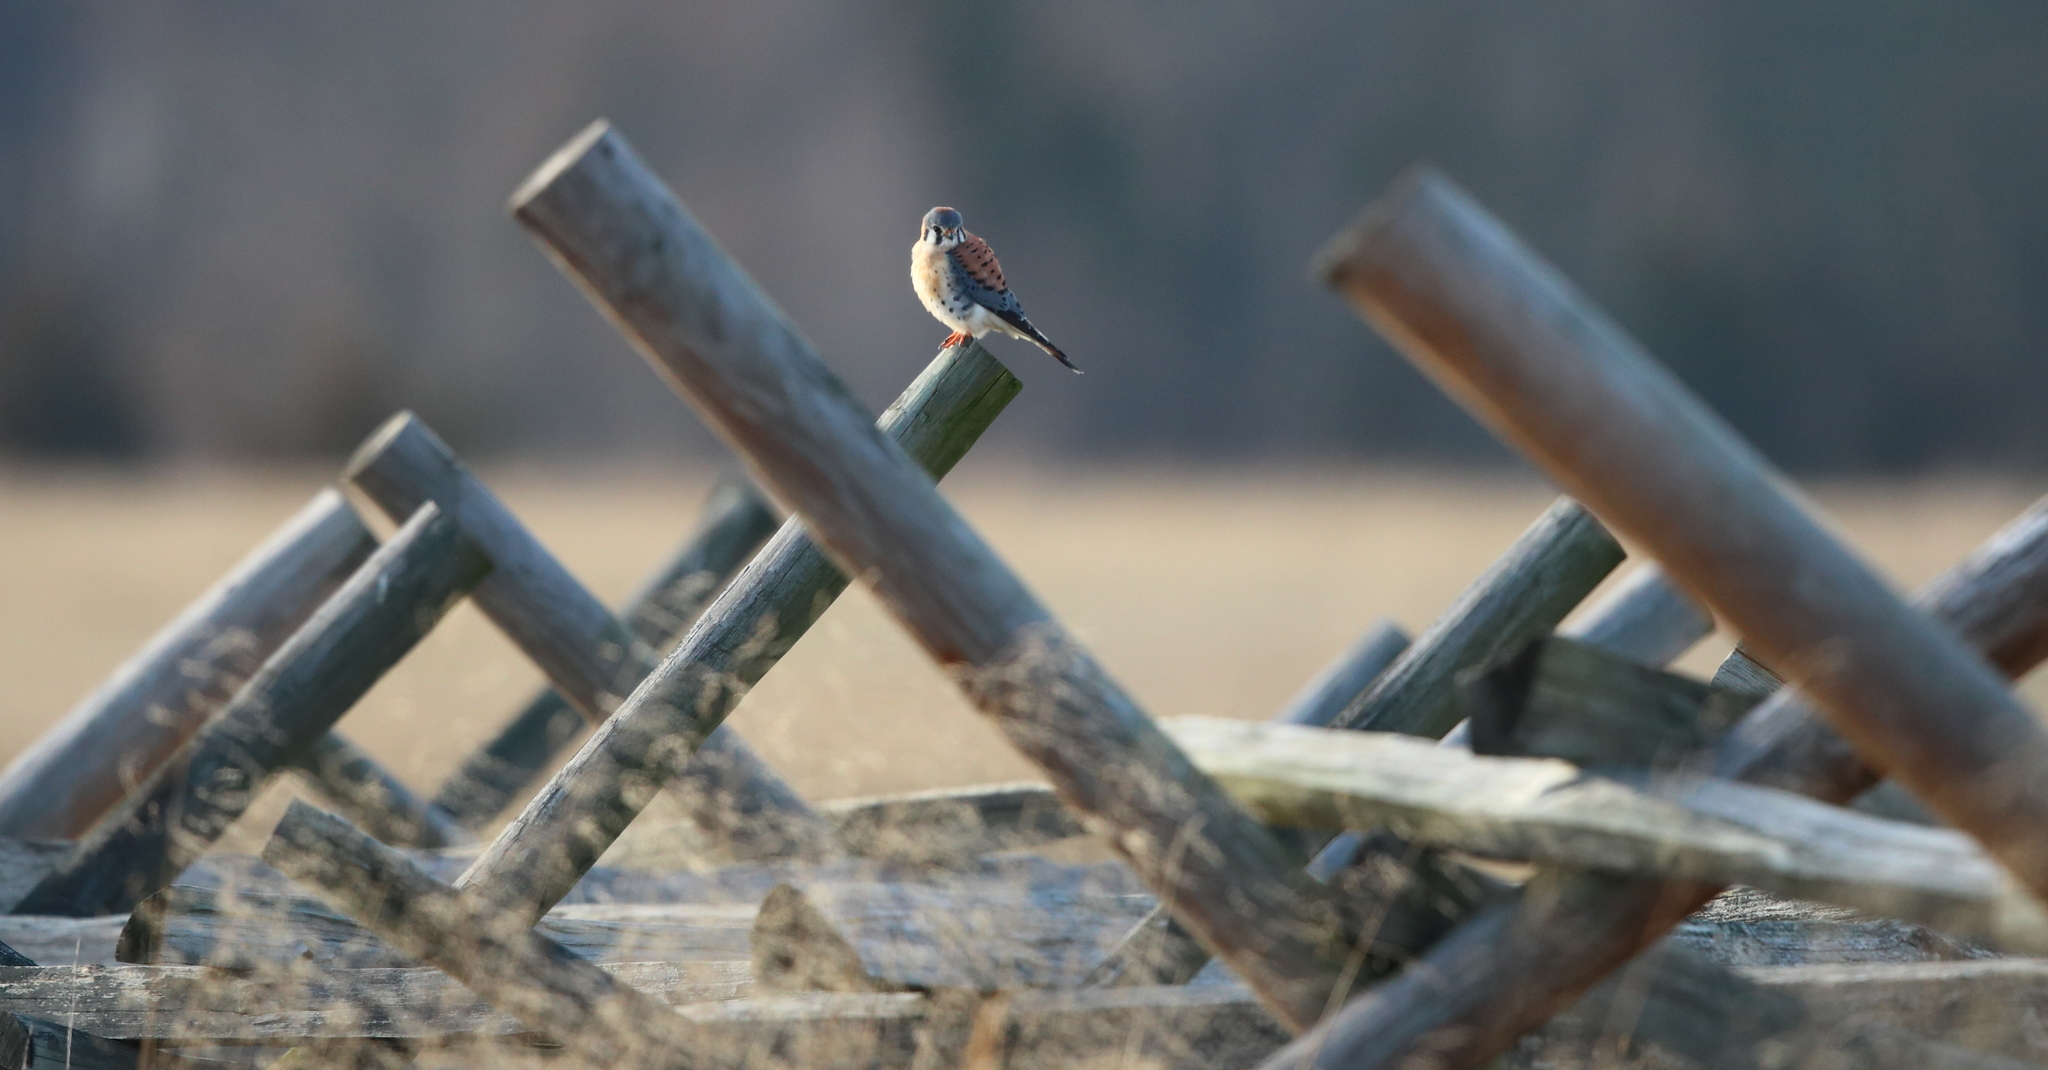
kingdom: Animalia
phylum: Chordata
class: Aves
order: Falconiformes
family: Falconidae
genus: Falco
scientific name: Falco sparverius
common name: American kestrel
